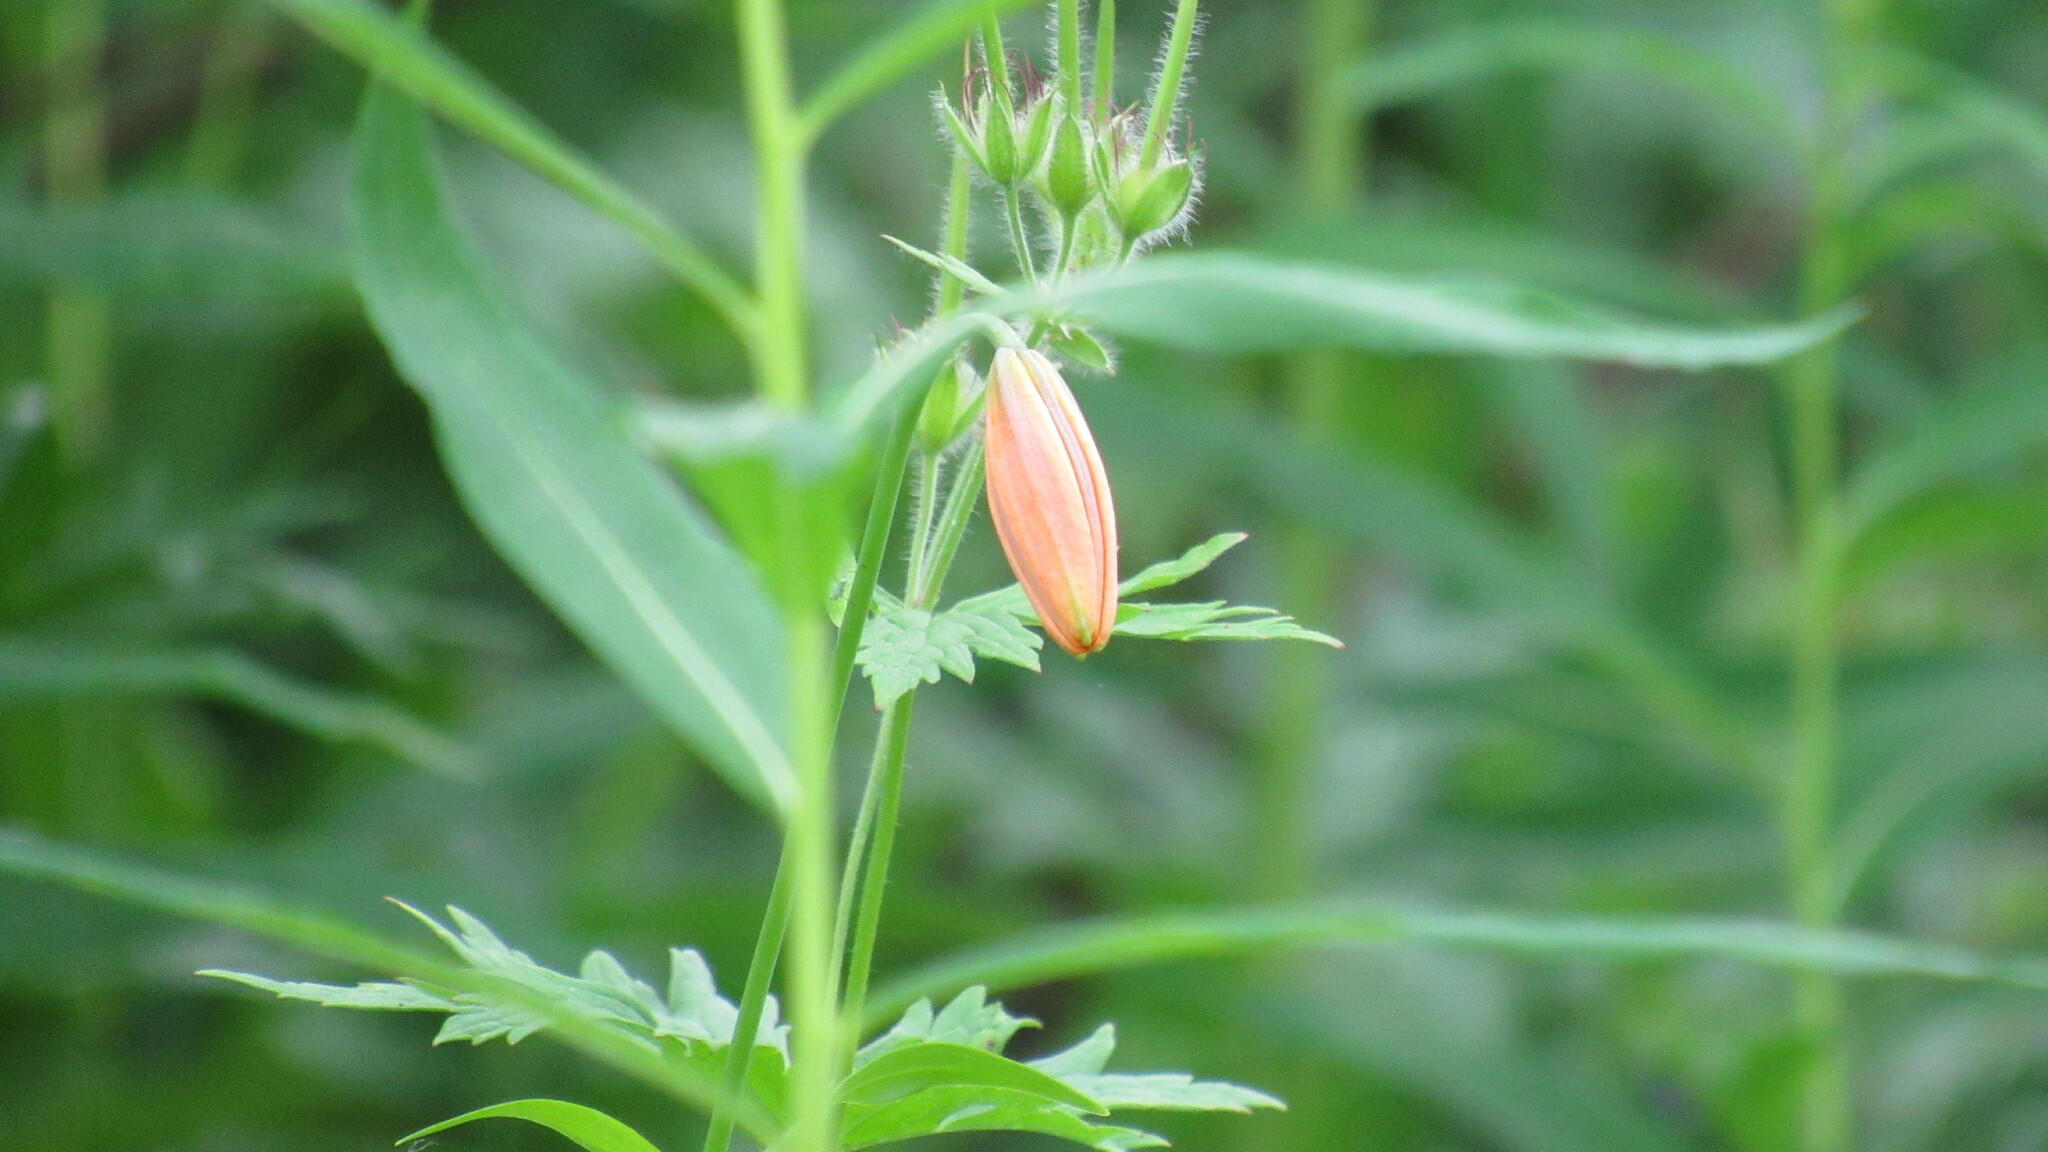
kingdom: Plantae
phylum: Tracheophyta
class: Liliopsida
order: Liliales
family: Liliaceae
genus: Lilium
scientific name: Lilium debile
